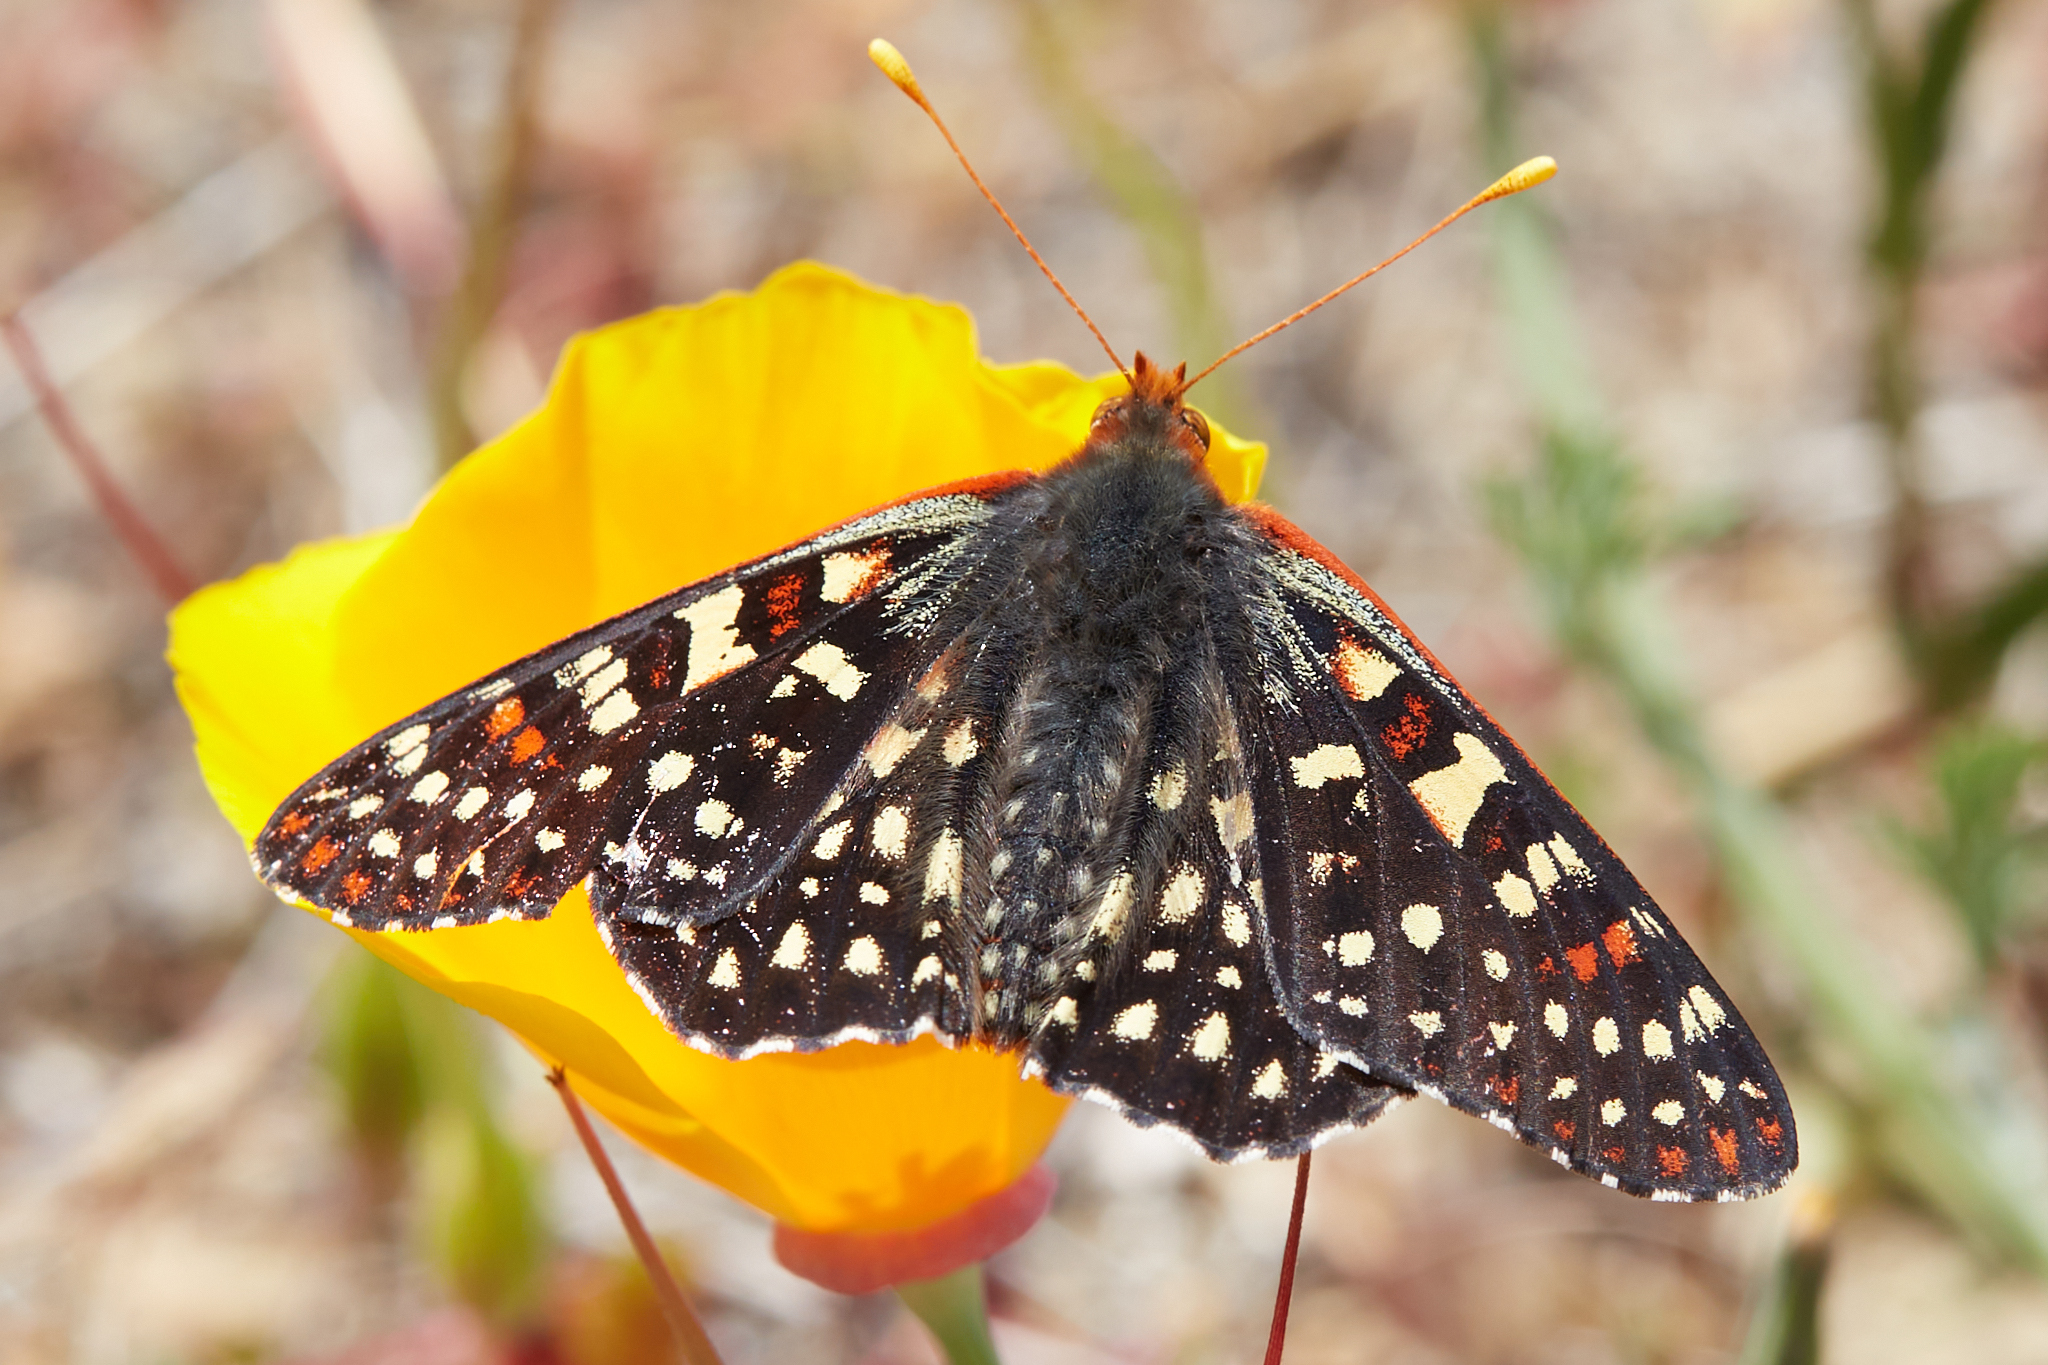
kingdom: Animalia
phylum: Arthropoda
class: Insecta
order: Lepidoptera
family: Nymphalidae
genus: Occidryas
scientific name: Occidryas chalcedona
